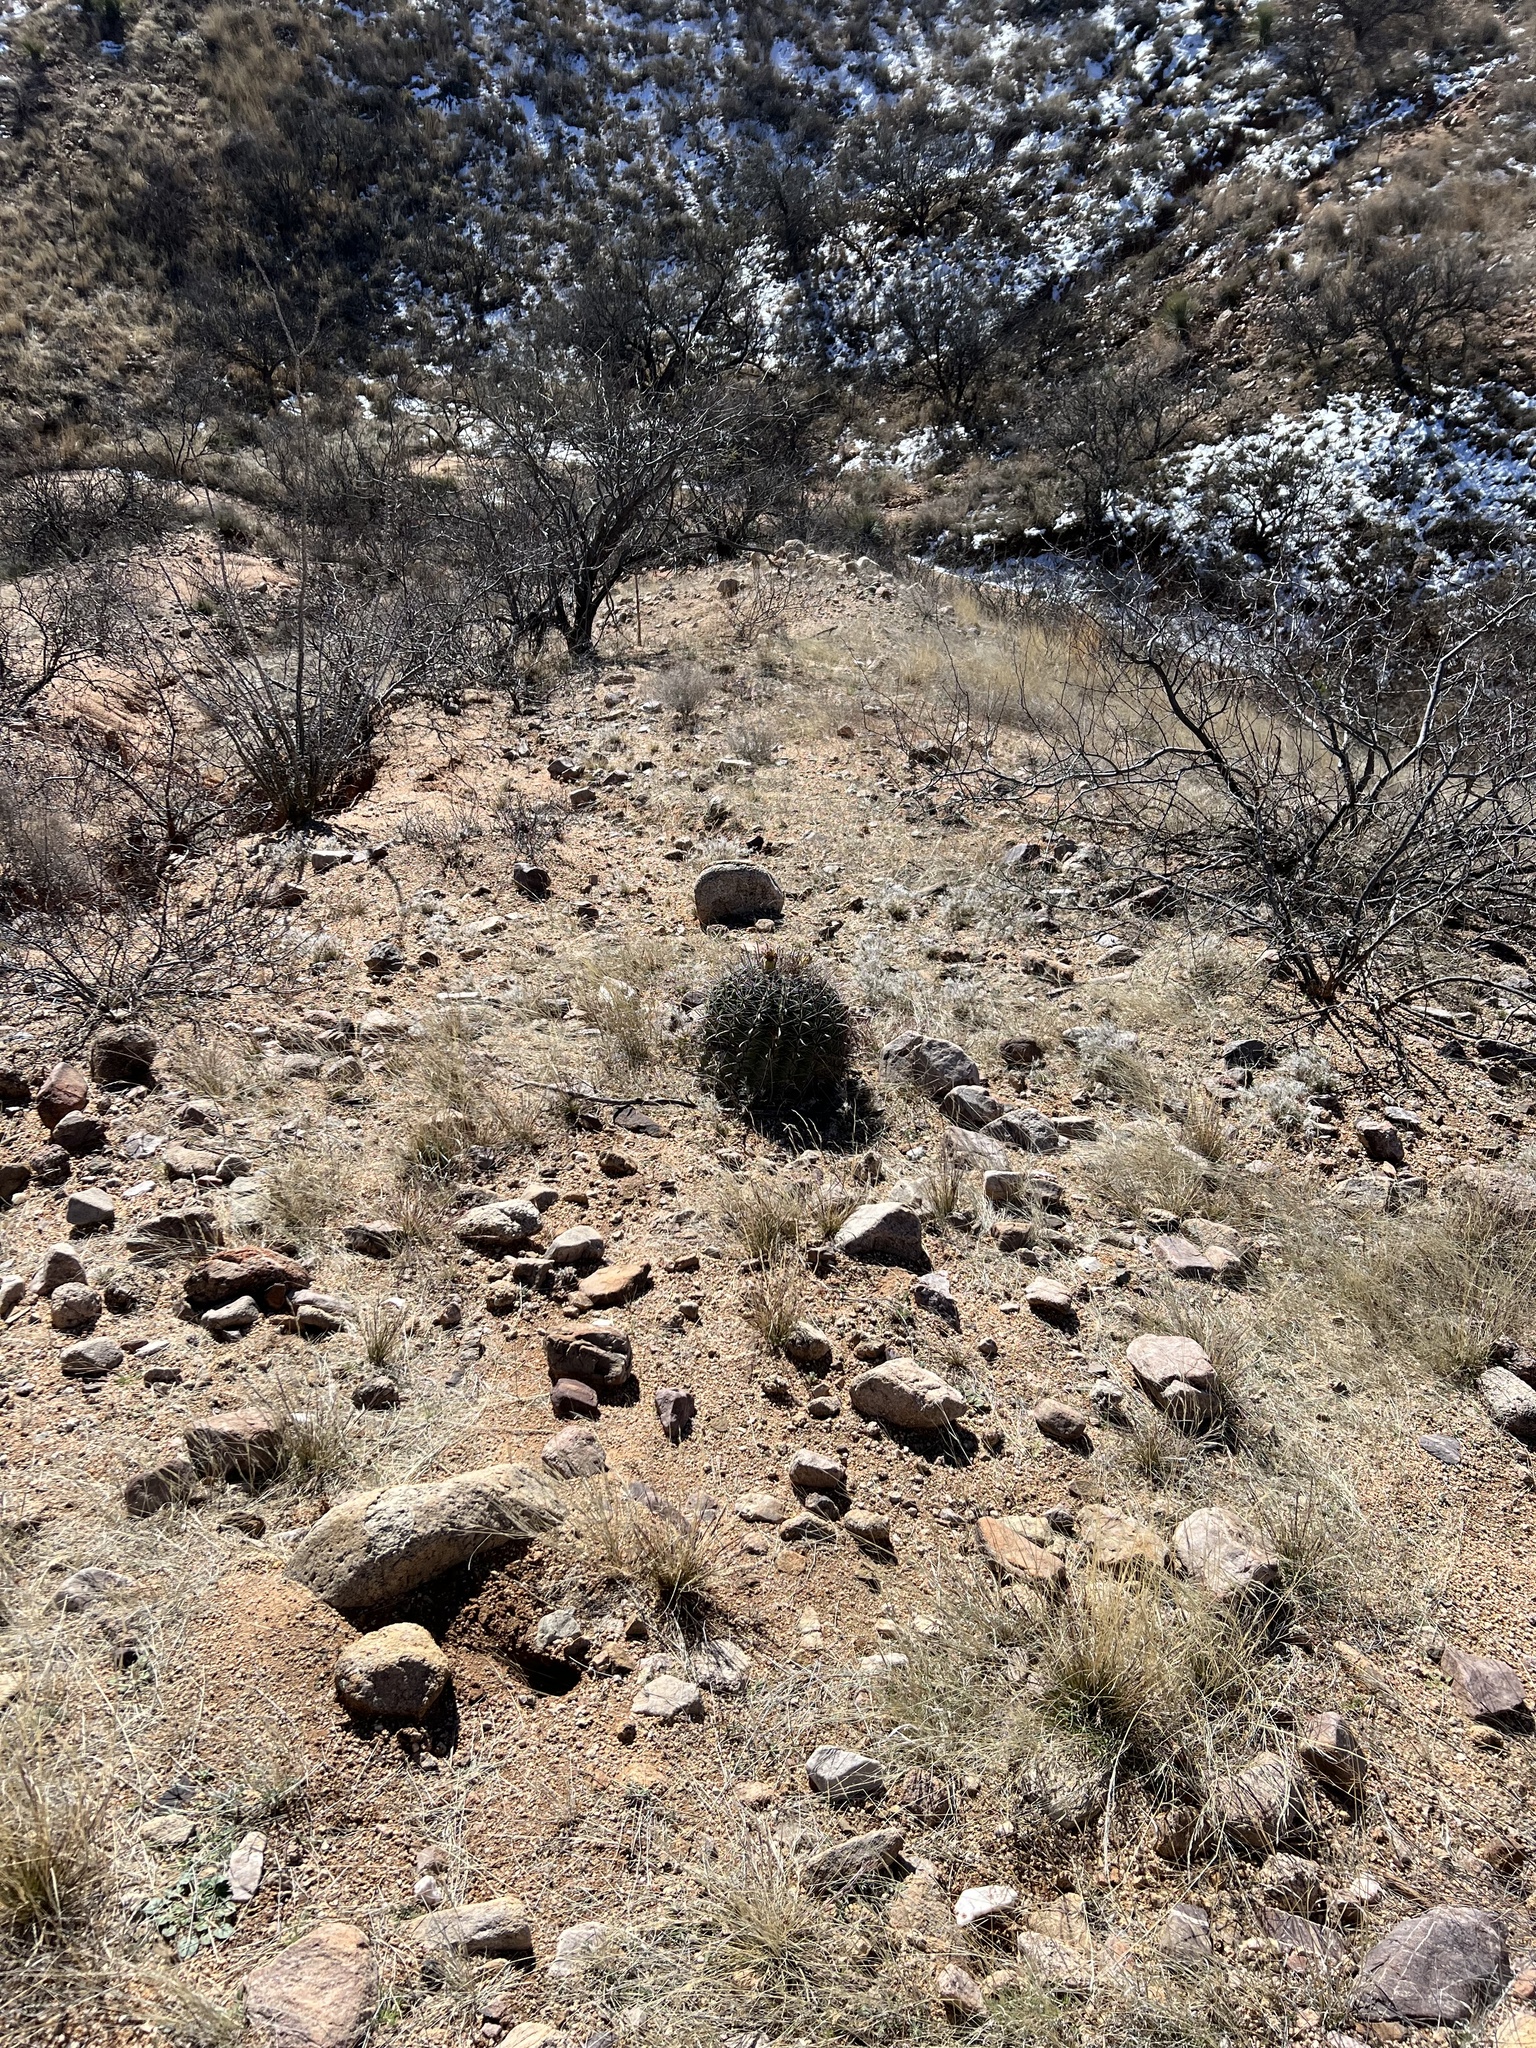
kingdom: Plantae
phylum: Tracheophyta
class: Magnoliopsida
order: Caryophyllales
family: Cactaceae
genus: Ferocactus
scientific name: Ferocactus wislizeni
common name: Candy barrel cactus
